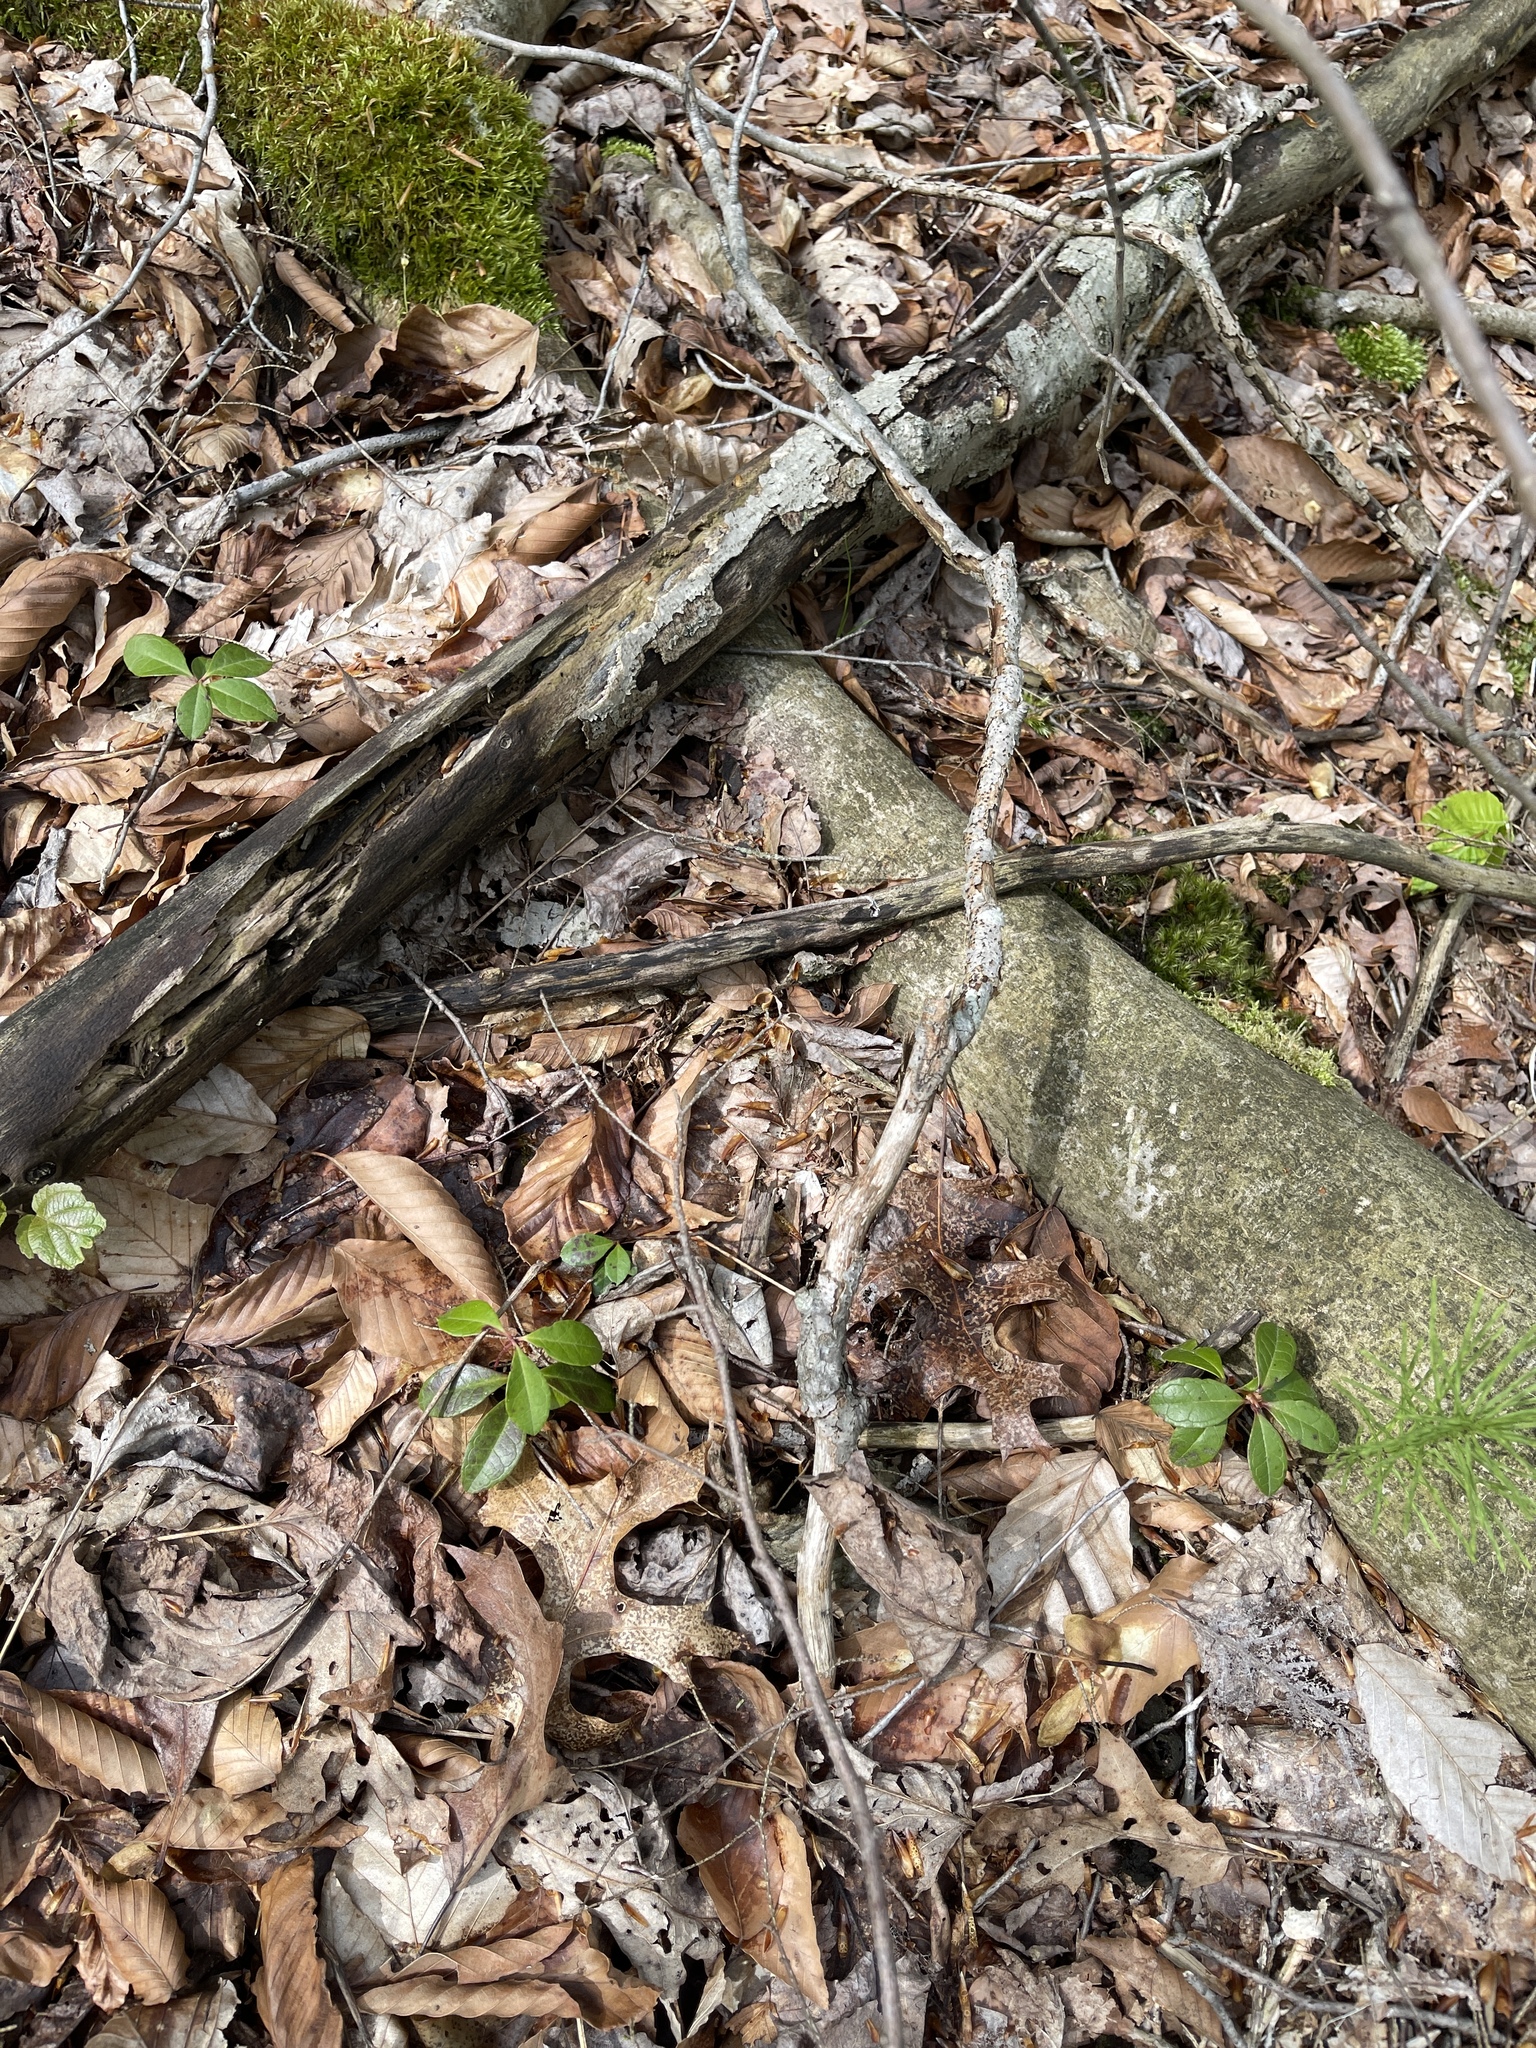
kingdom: Plantae
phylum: Tracheophyta
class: Magnoliopsida
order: Ericales
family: Ericaceae
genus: Gaultheria
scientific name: Gaultheria procumbens
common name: Checkerberry
